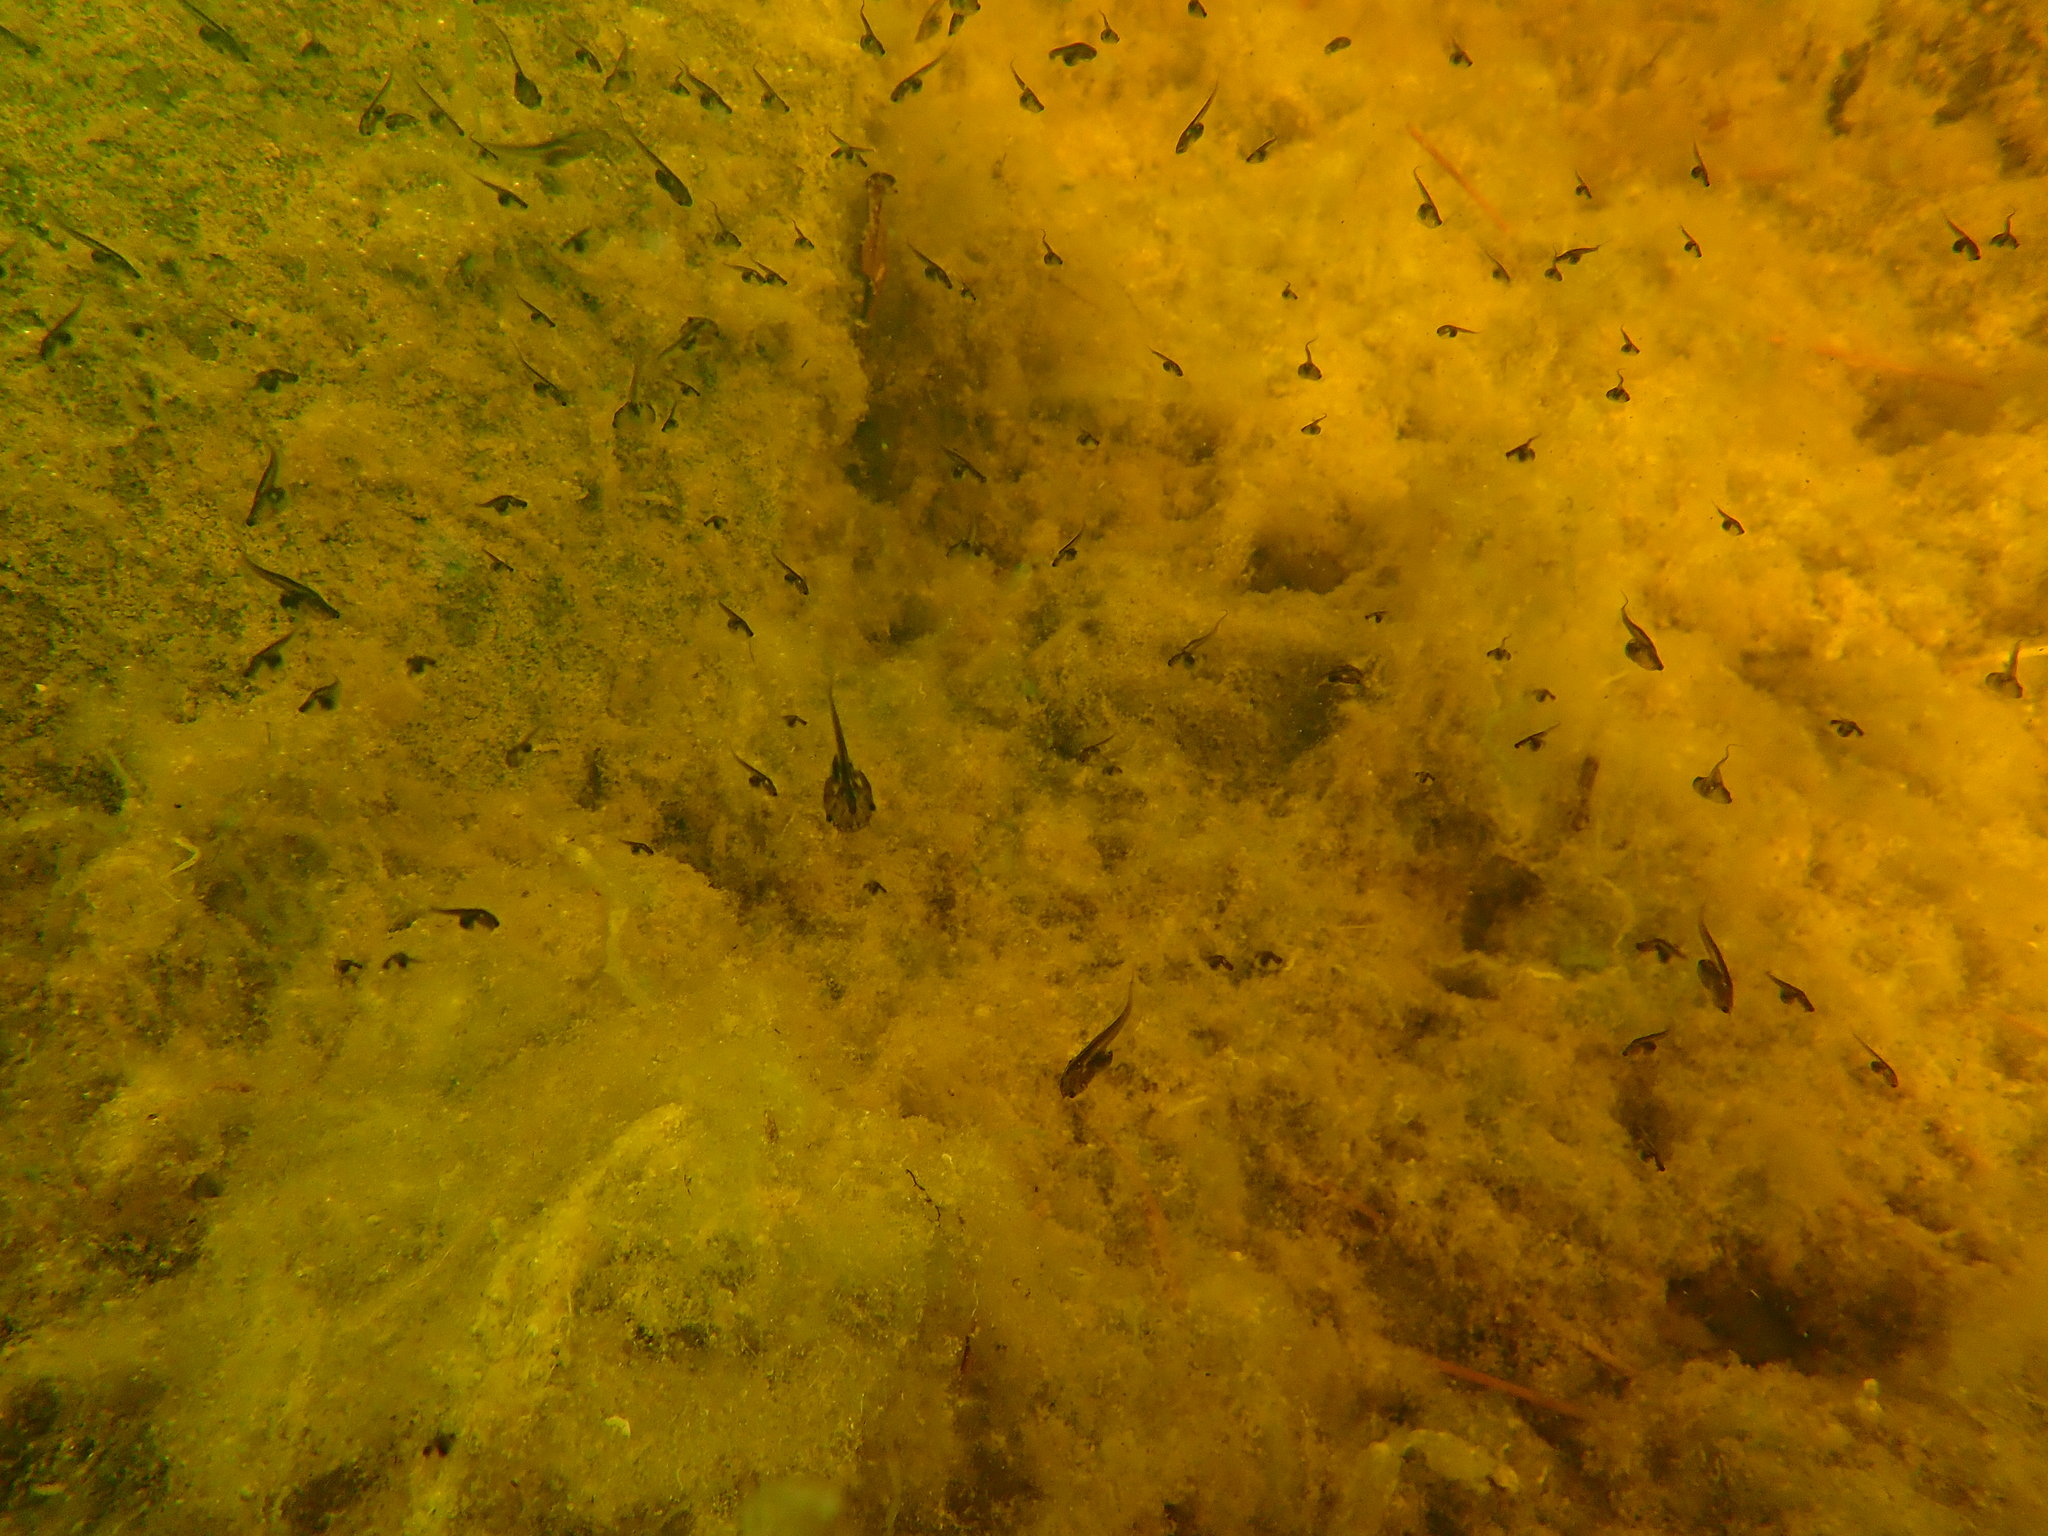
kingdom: Animalia
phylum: Chordata
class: Amphibia
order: Anura
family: Pipidae
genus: Xenopus
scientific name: Xenopus laevis
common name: African clawed frog
